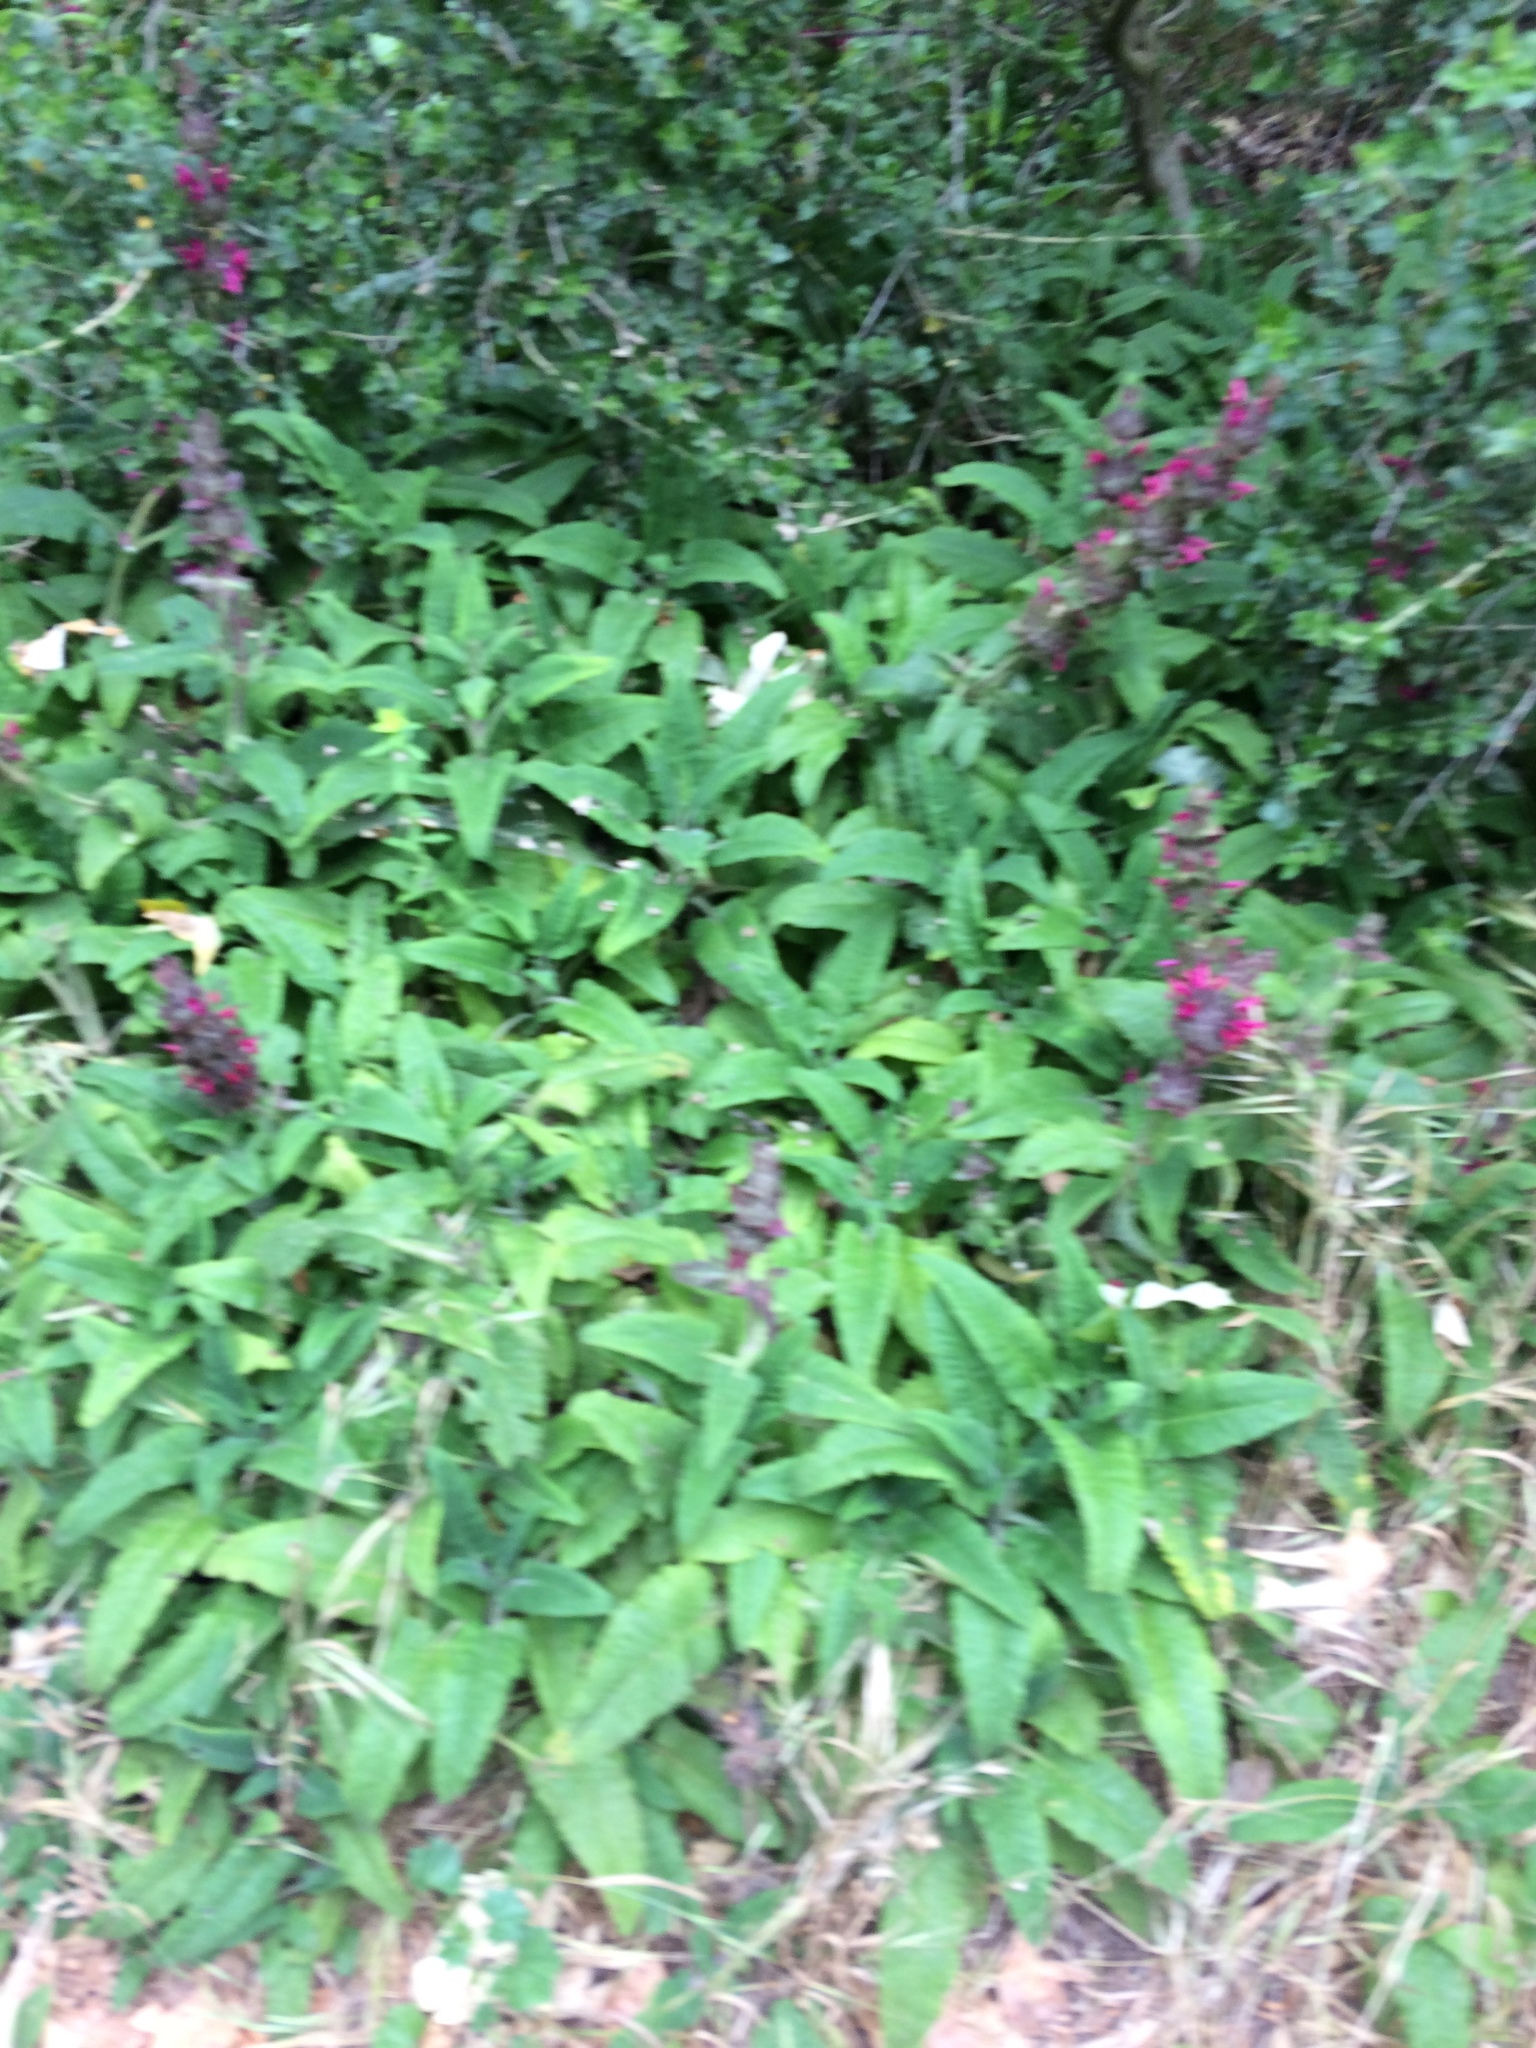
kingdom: Plantae
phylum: Tracheophyta
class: Magnoliopsida
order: Lamiales
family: Lamiaceae
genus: Salvia
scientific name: Salvia spathacea
